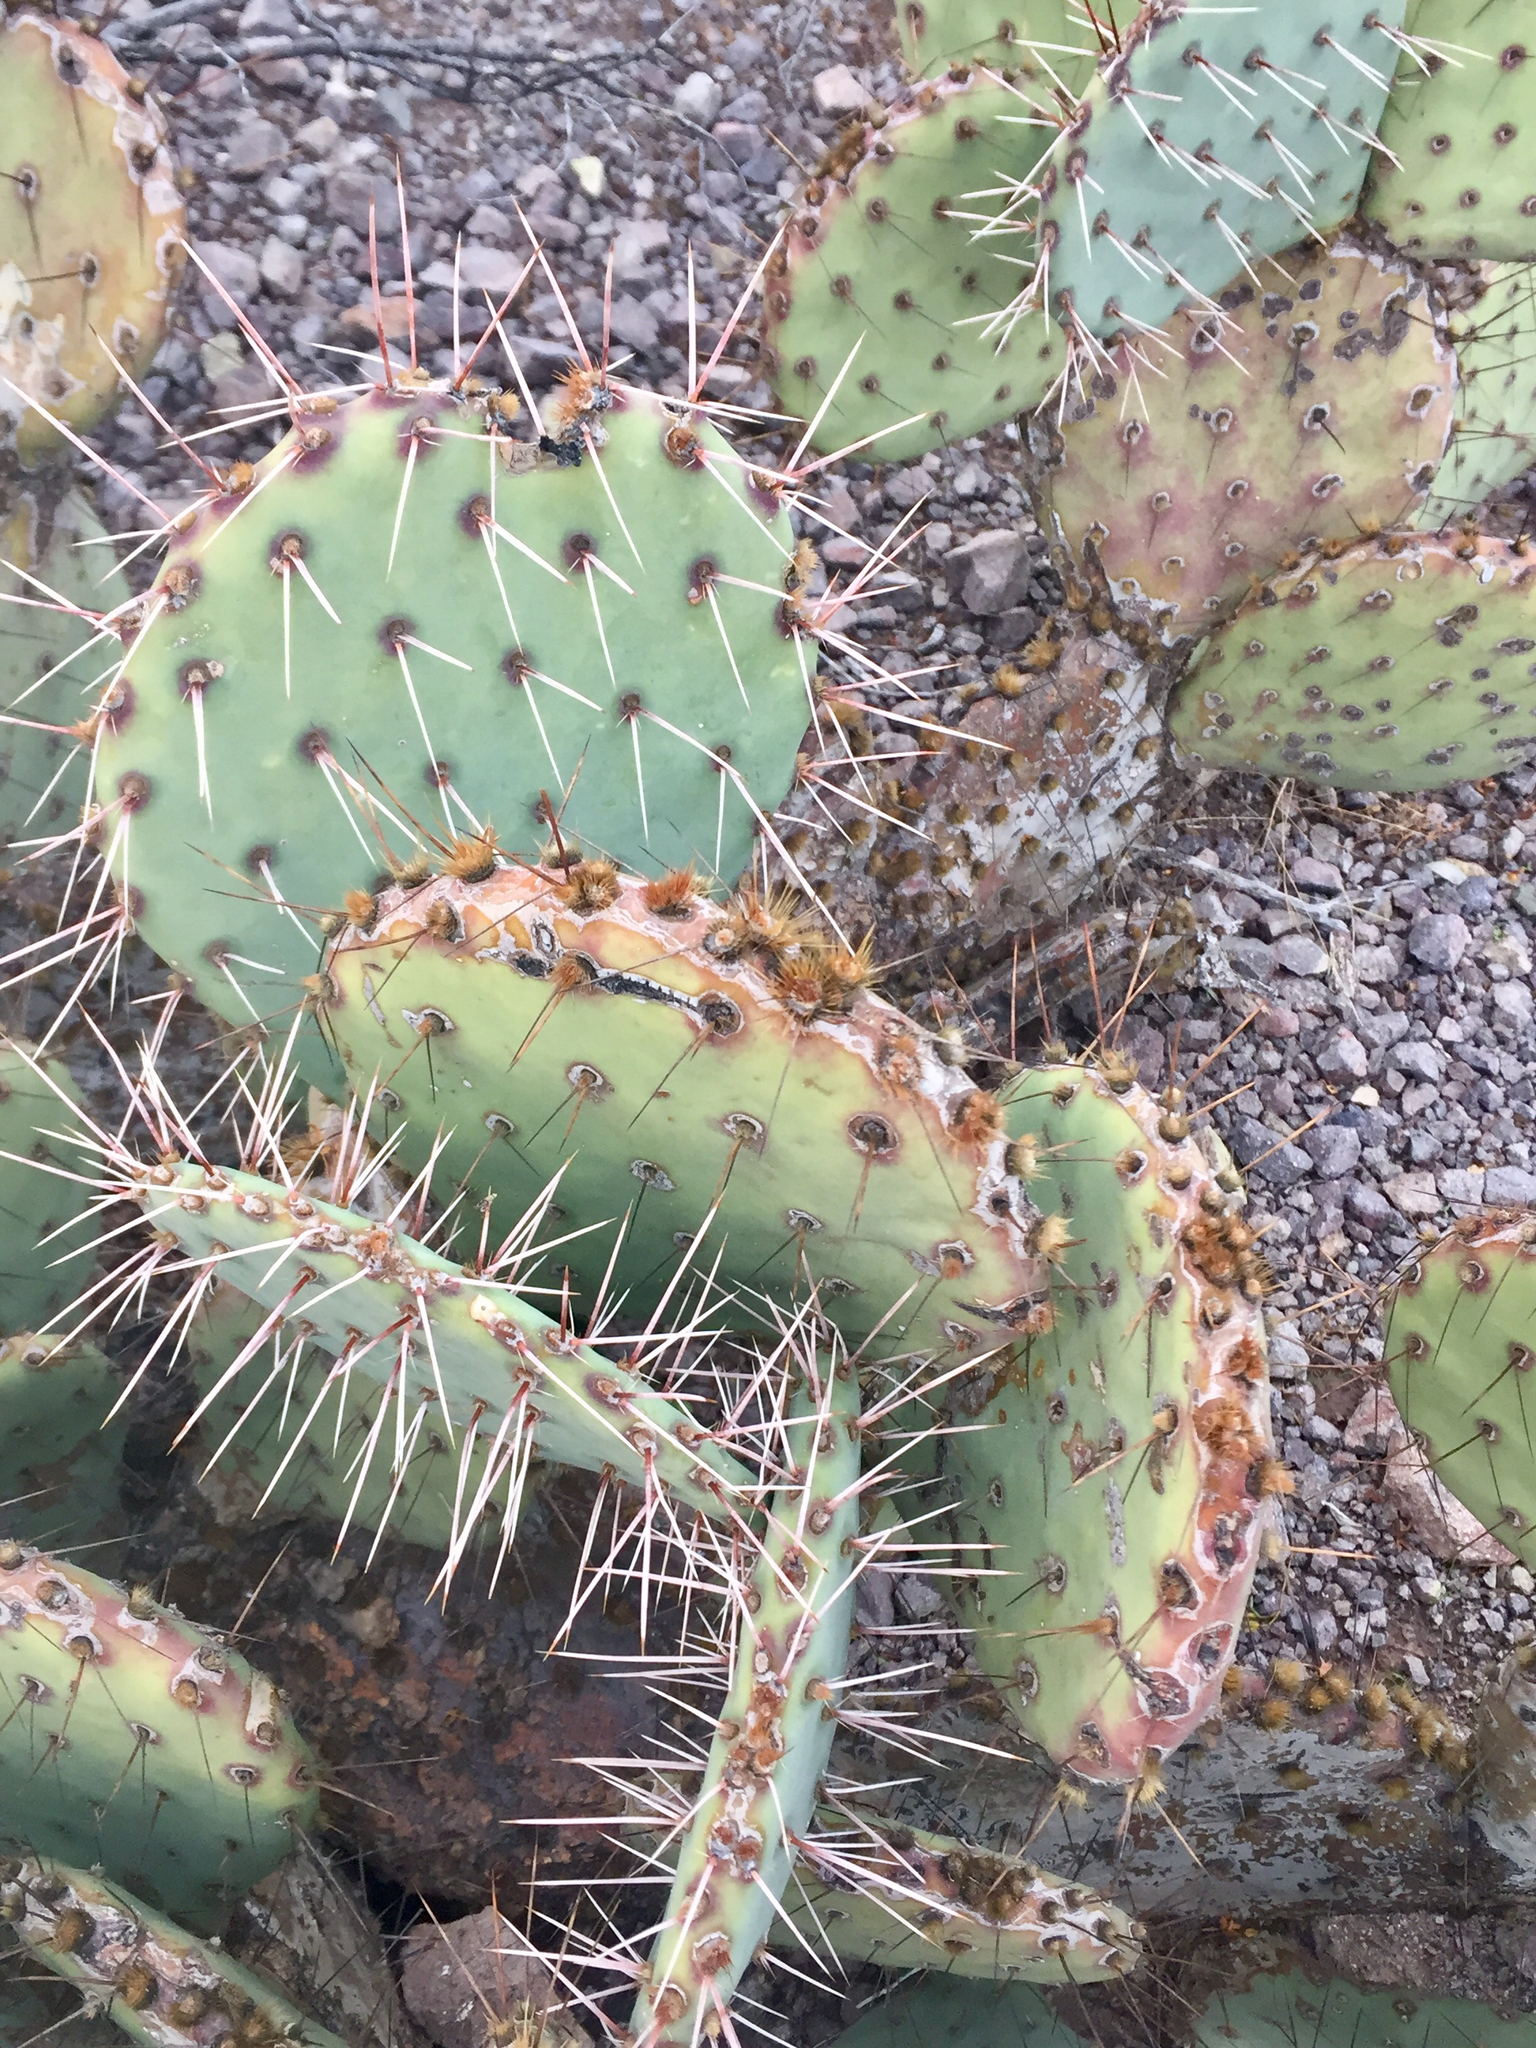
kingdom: Plantae
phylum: Tracheophyta
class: Magnoliopsida
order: Caryophyllales
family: Cactaceae
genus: Opuntia
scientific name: Opuntia engelmannii
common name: Cactus-apple
